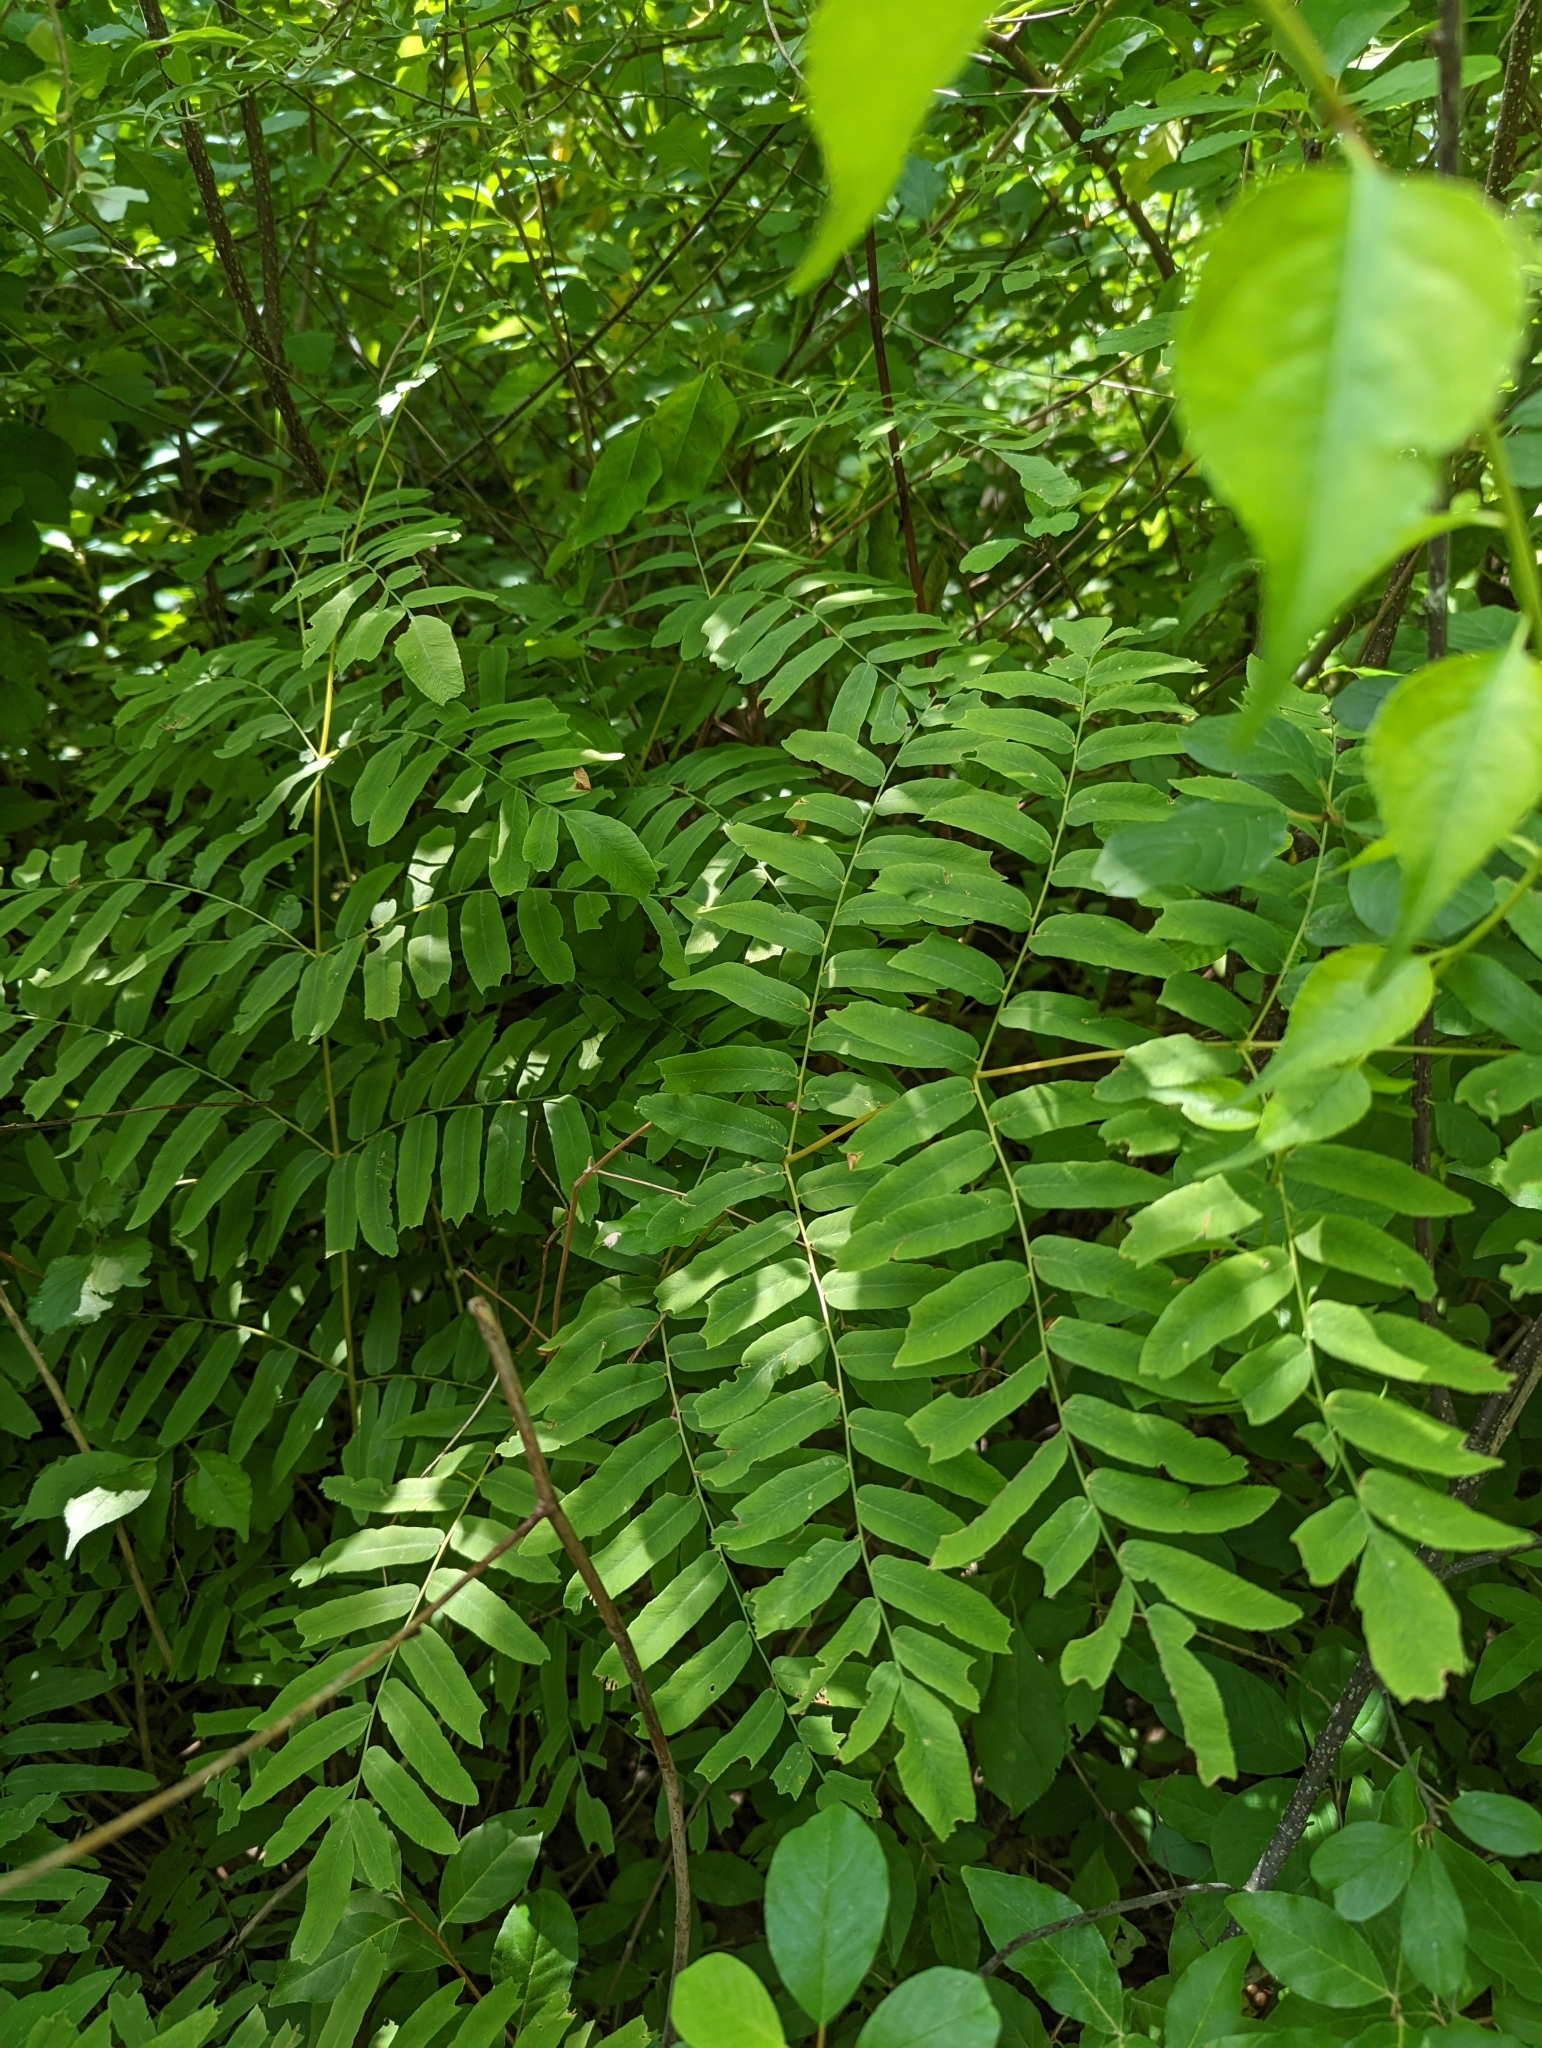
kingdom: Plantae
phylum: Tracheophyta
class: Polypodiopsida
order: Osmundales
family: Osmundaceae
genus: Osmunda
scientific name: Osmunda spectabilis
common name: American royal fern
